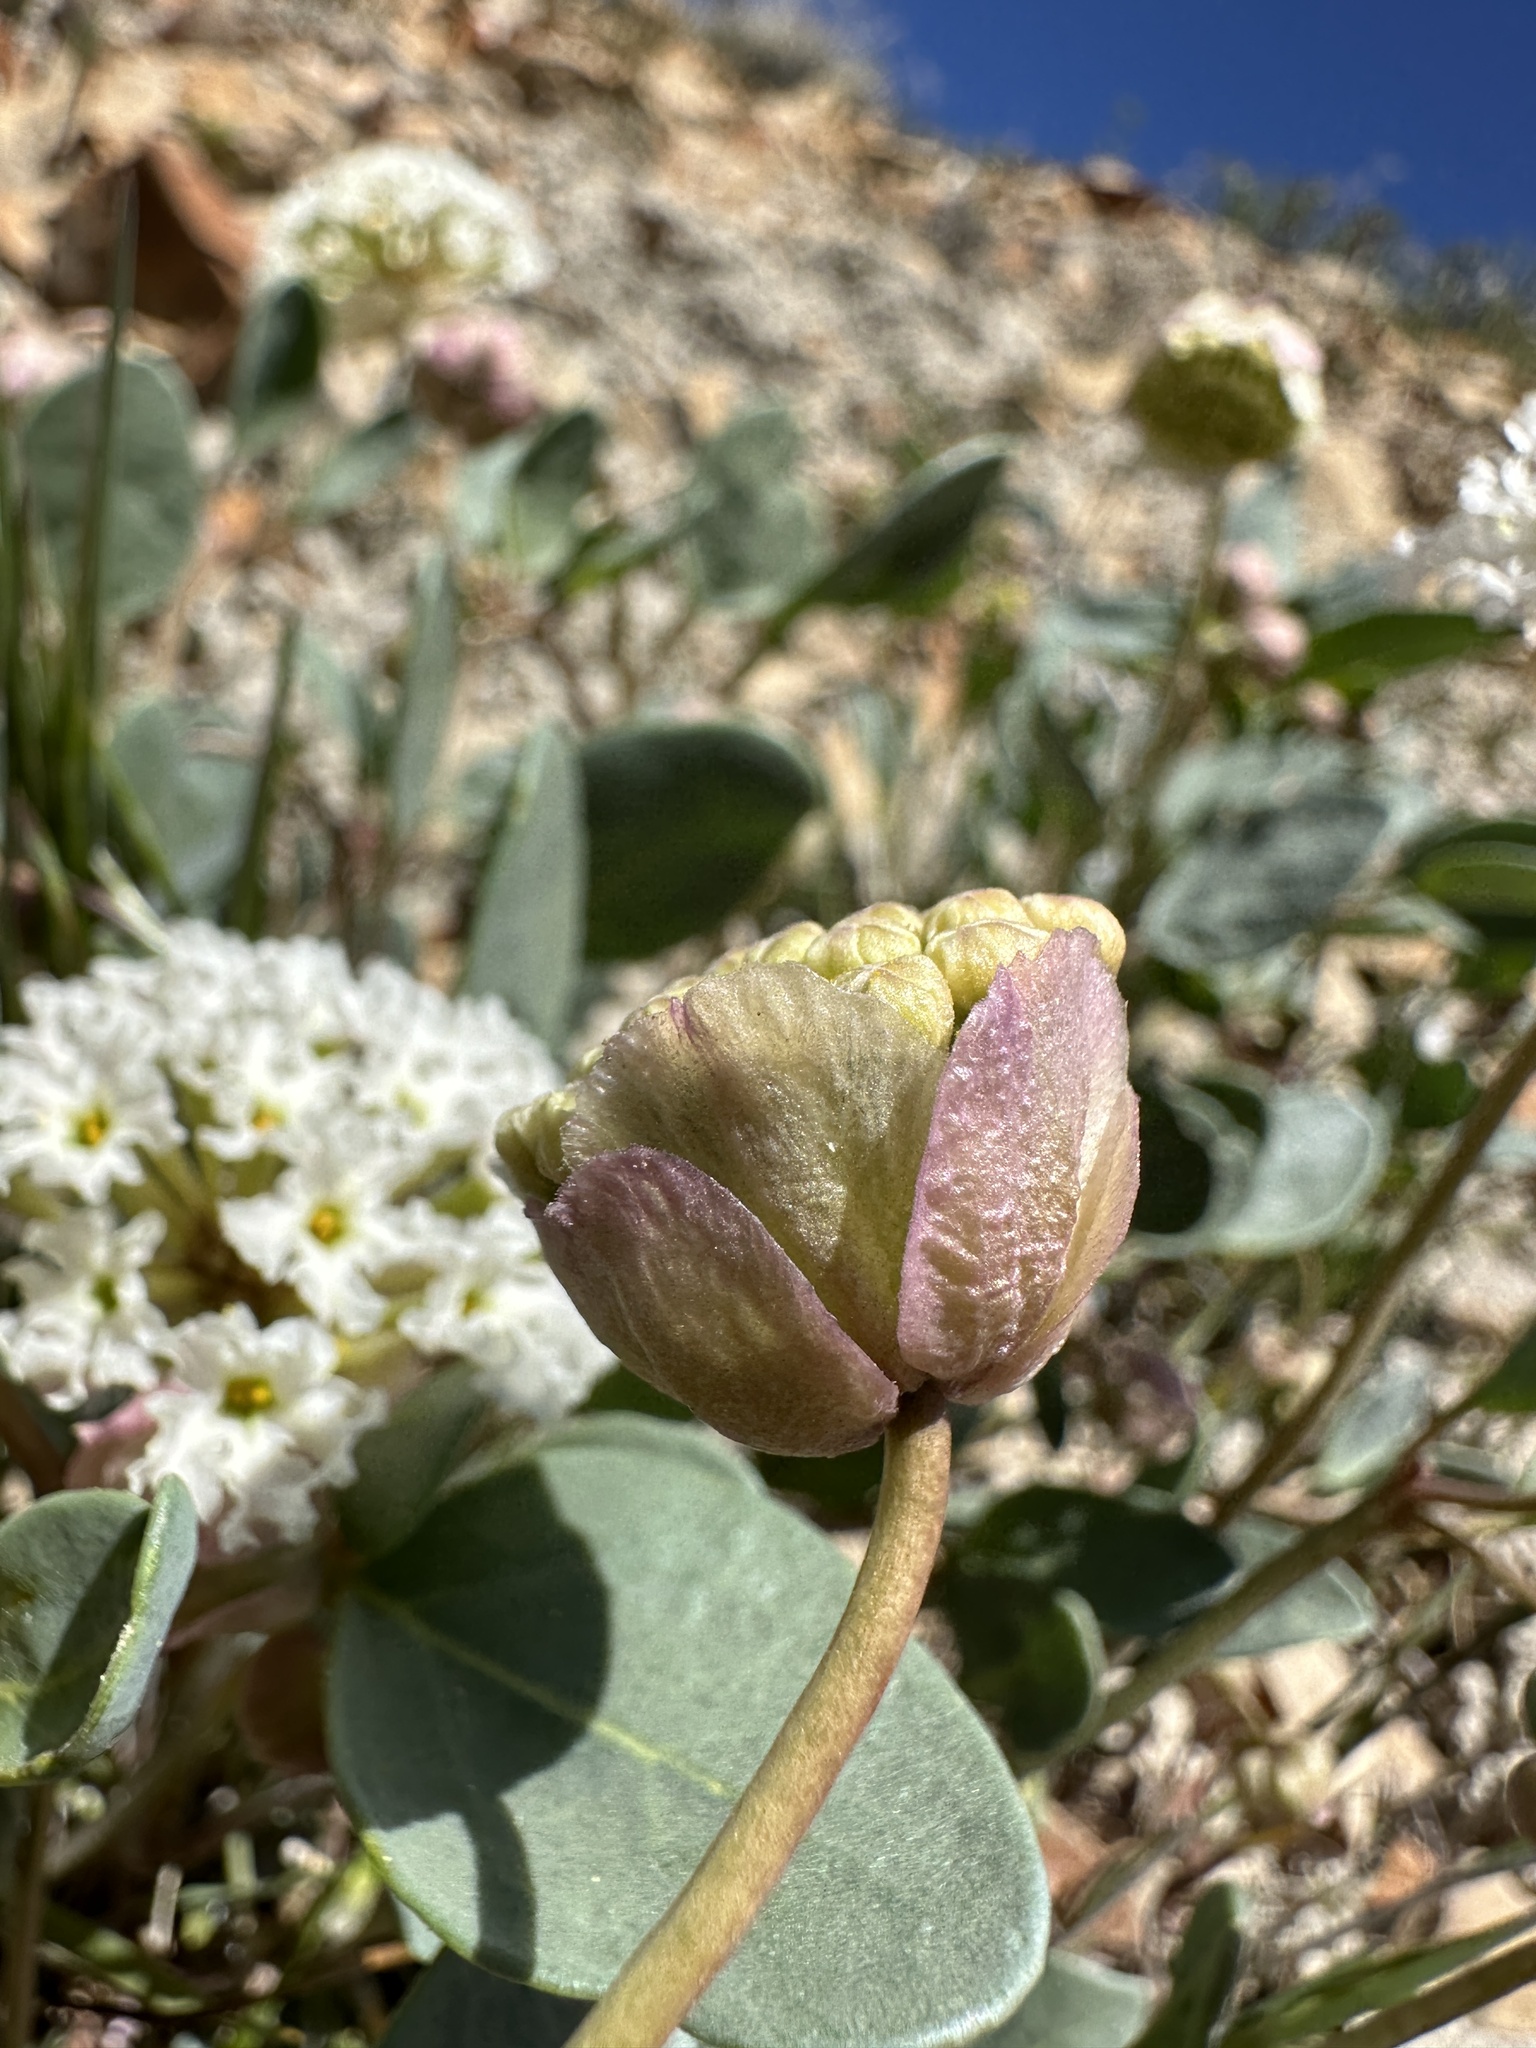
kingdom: Plantae
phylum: Tracheophyta
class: Magnoliopsida
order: Caryophyllales
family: Nyctaginaceae
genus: Abronia
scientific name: Abronia glabrifolia
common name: Clay sand verbena
